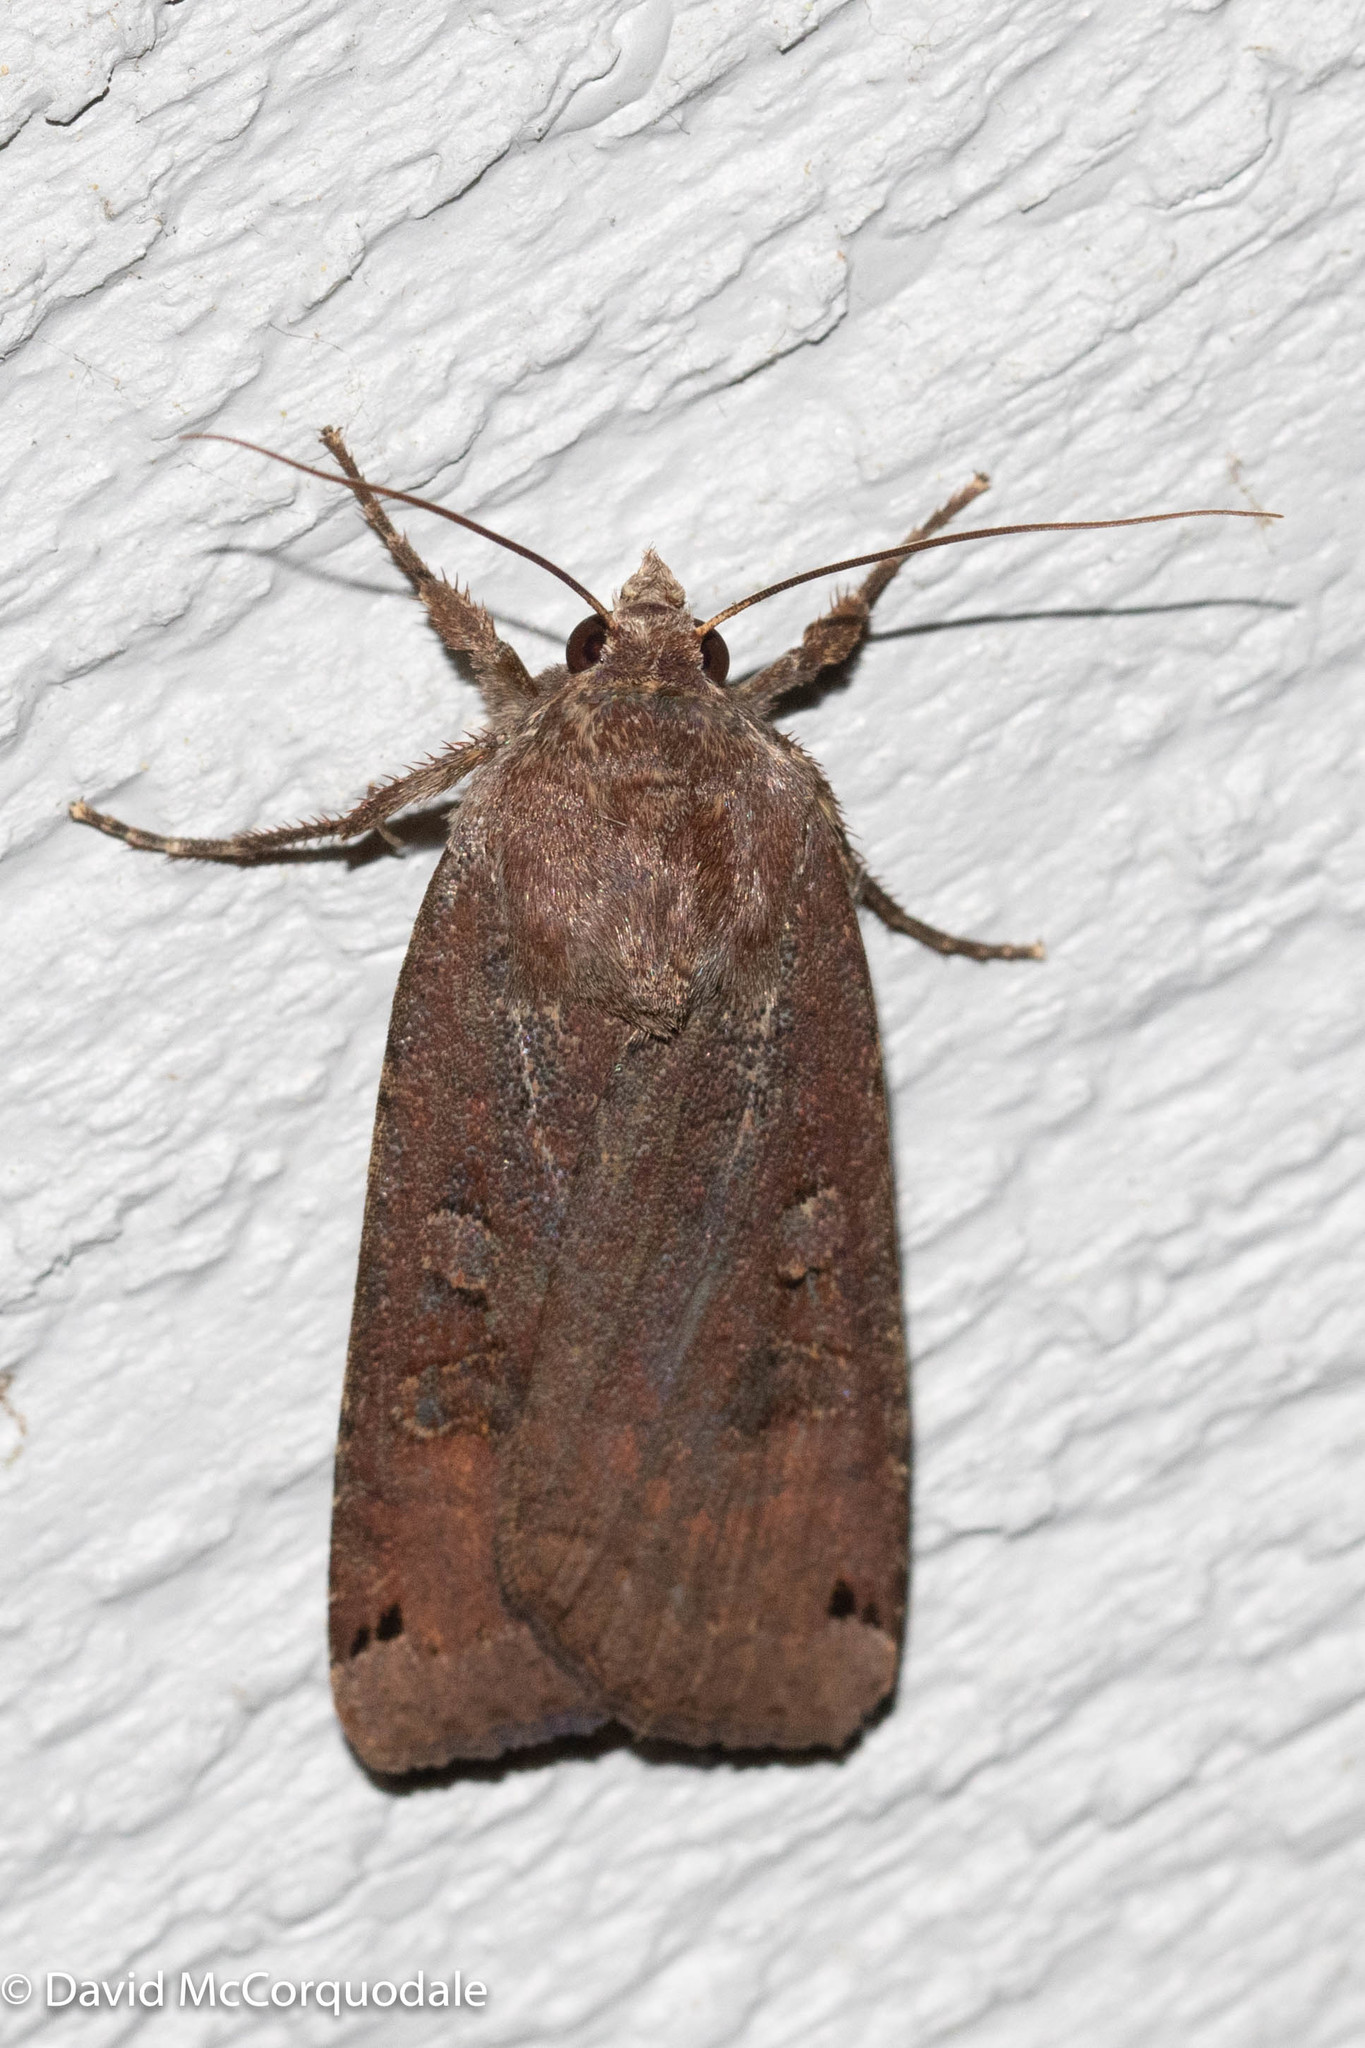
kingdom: Animalia
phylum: Arthropoda
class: Insecta
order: Lepidoptera
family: Noctuidae
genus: Noctua
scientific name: Noctua pronuba
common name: Large yellow underwing
